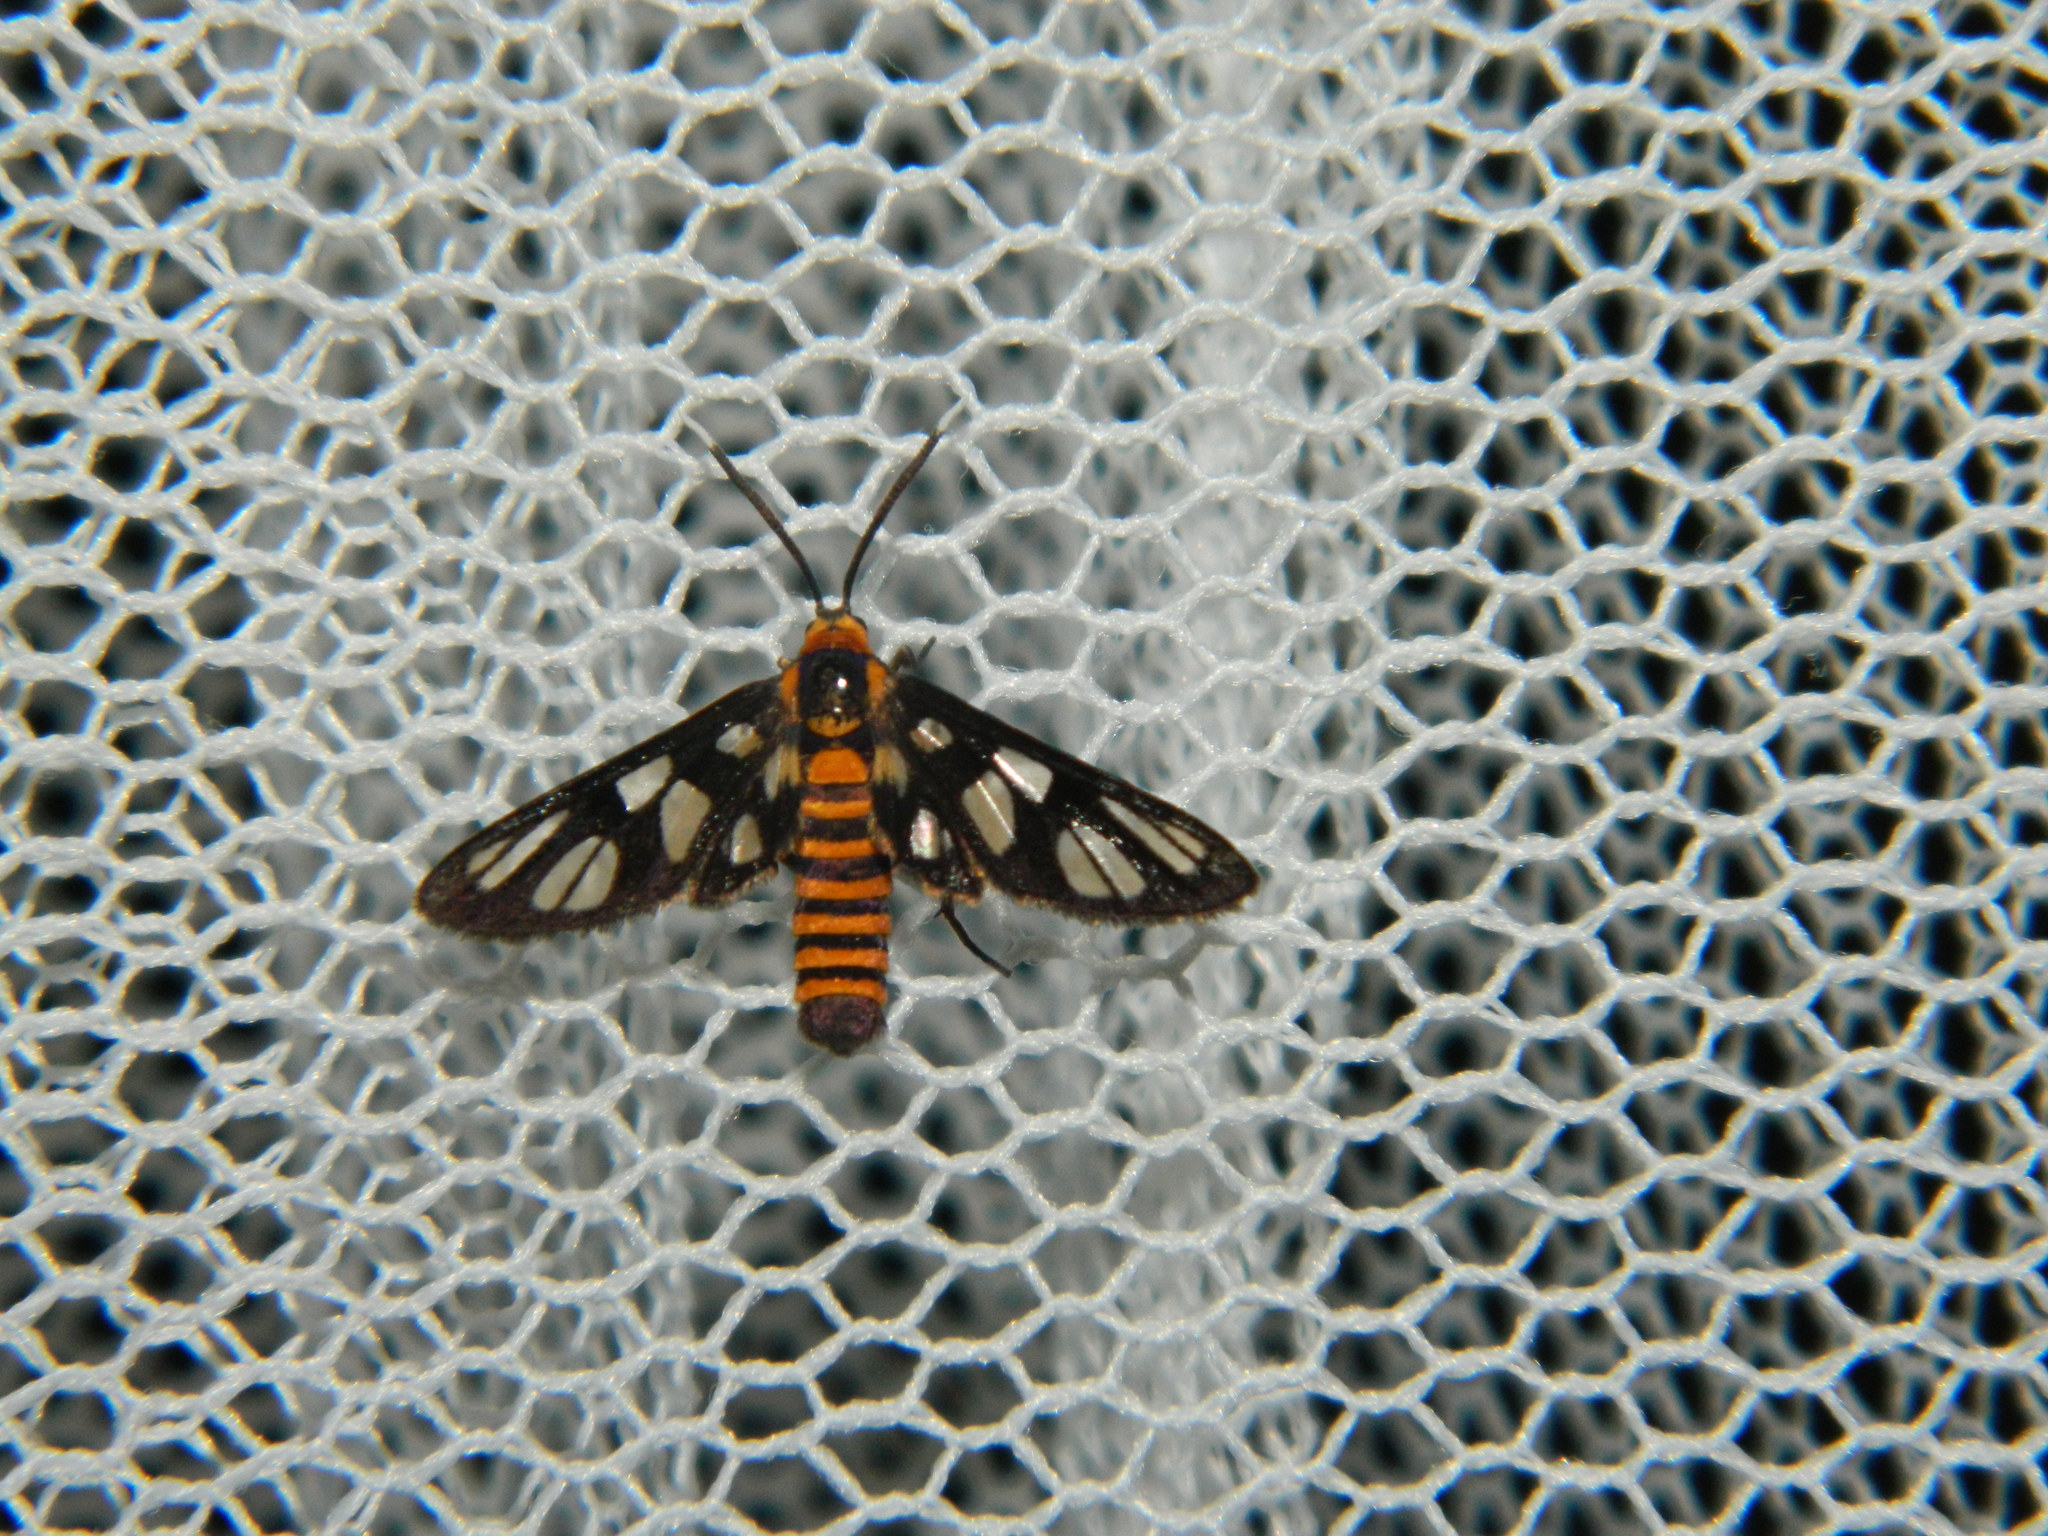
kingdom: Animalia
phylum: Arthropoda
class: Insecta
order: Lepidoptera
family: Erebidae
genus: Amata
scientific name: Amata huebneri
